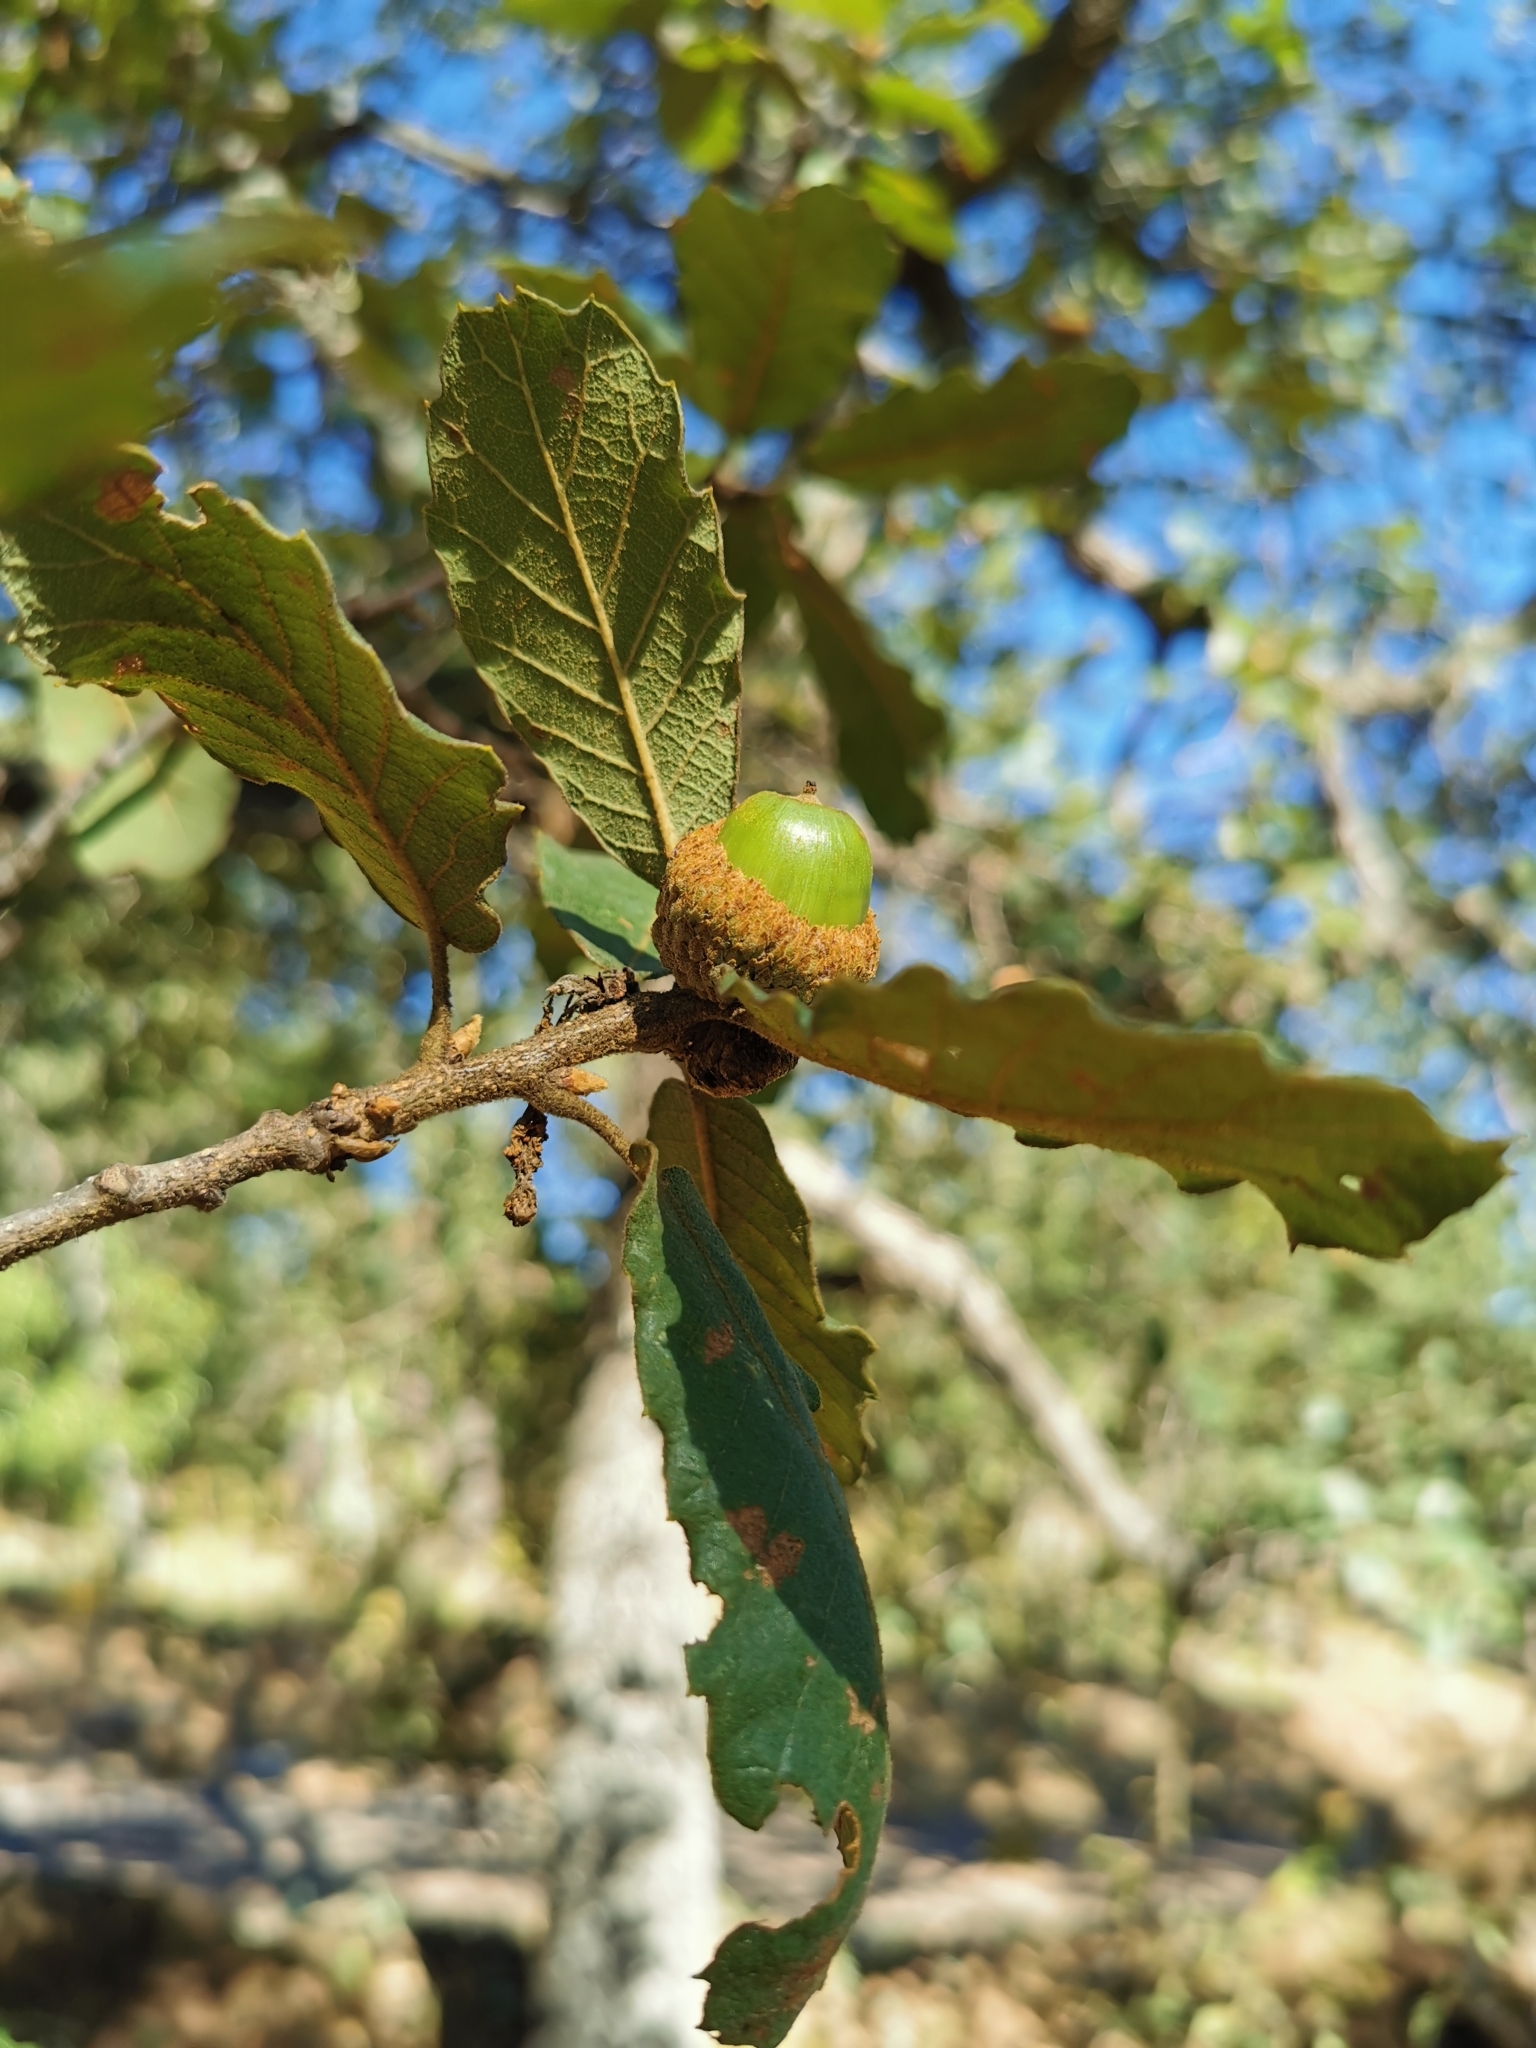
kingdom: Plantae
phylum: Tracheophyta
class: Magnoliopsida
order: Fagales
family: Fagaceae
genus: Quercus
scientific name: Quercus arizonica
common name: Arizona white oak
